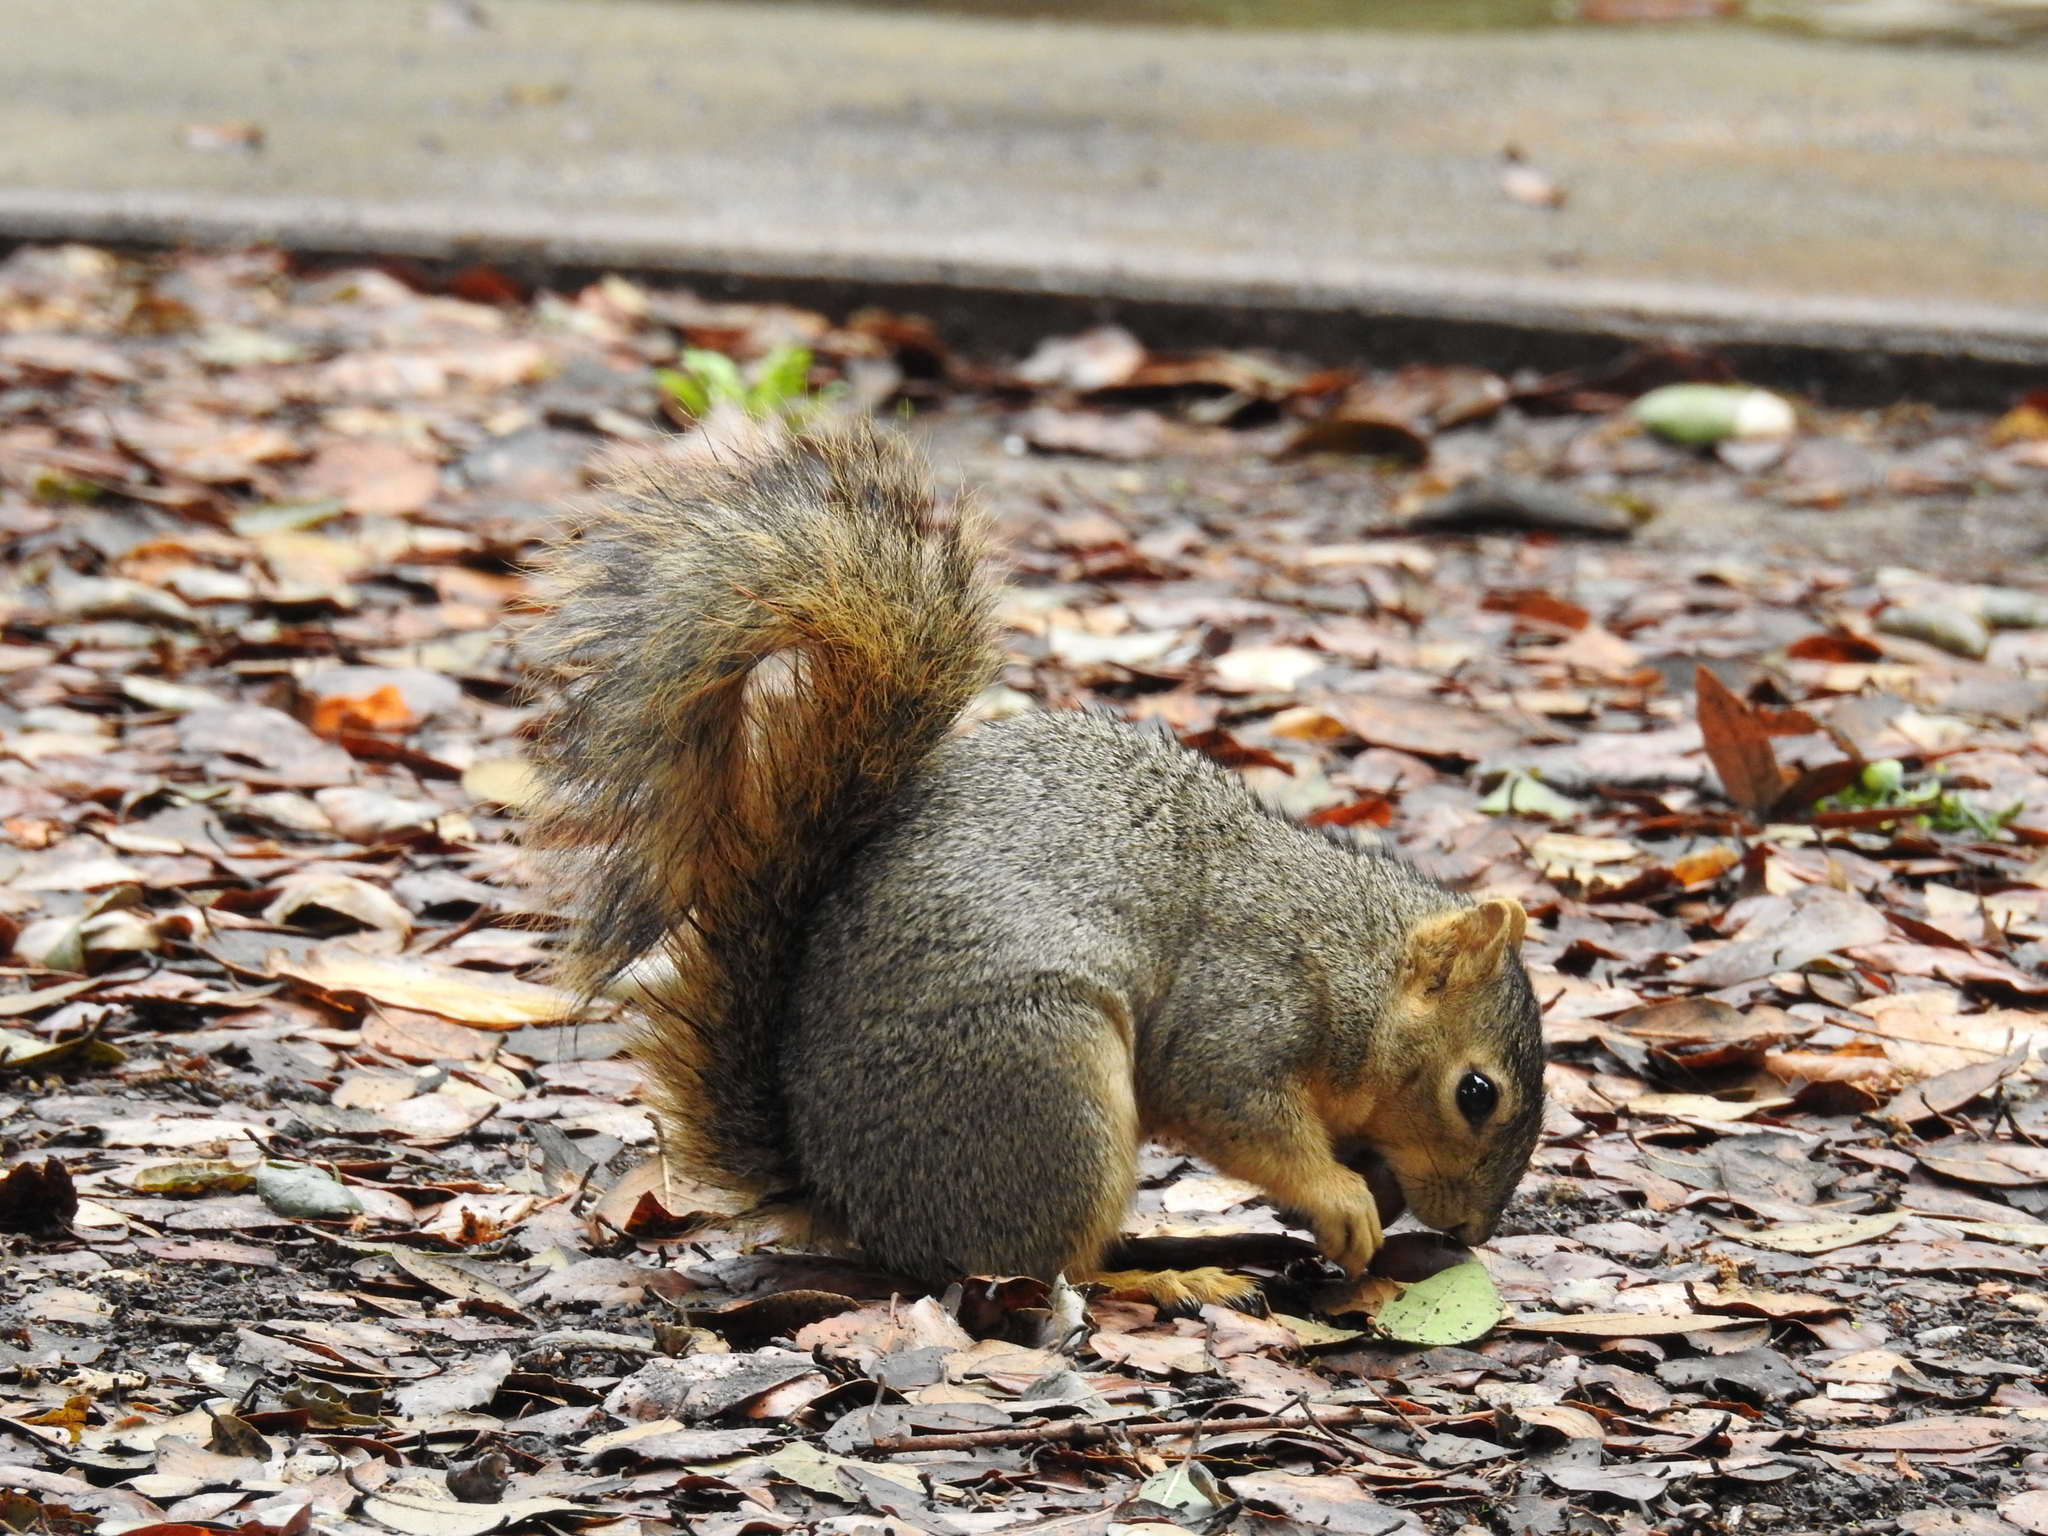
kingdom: Animalia
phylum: Chordata
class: Mammalia
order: Rodentia
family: Sciuridae
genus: Sciurus
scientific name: Sciurus niger
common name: Fox squirrel
